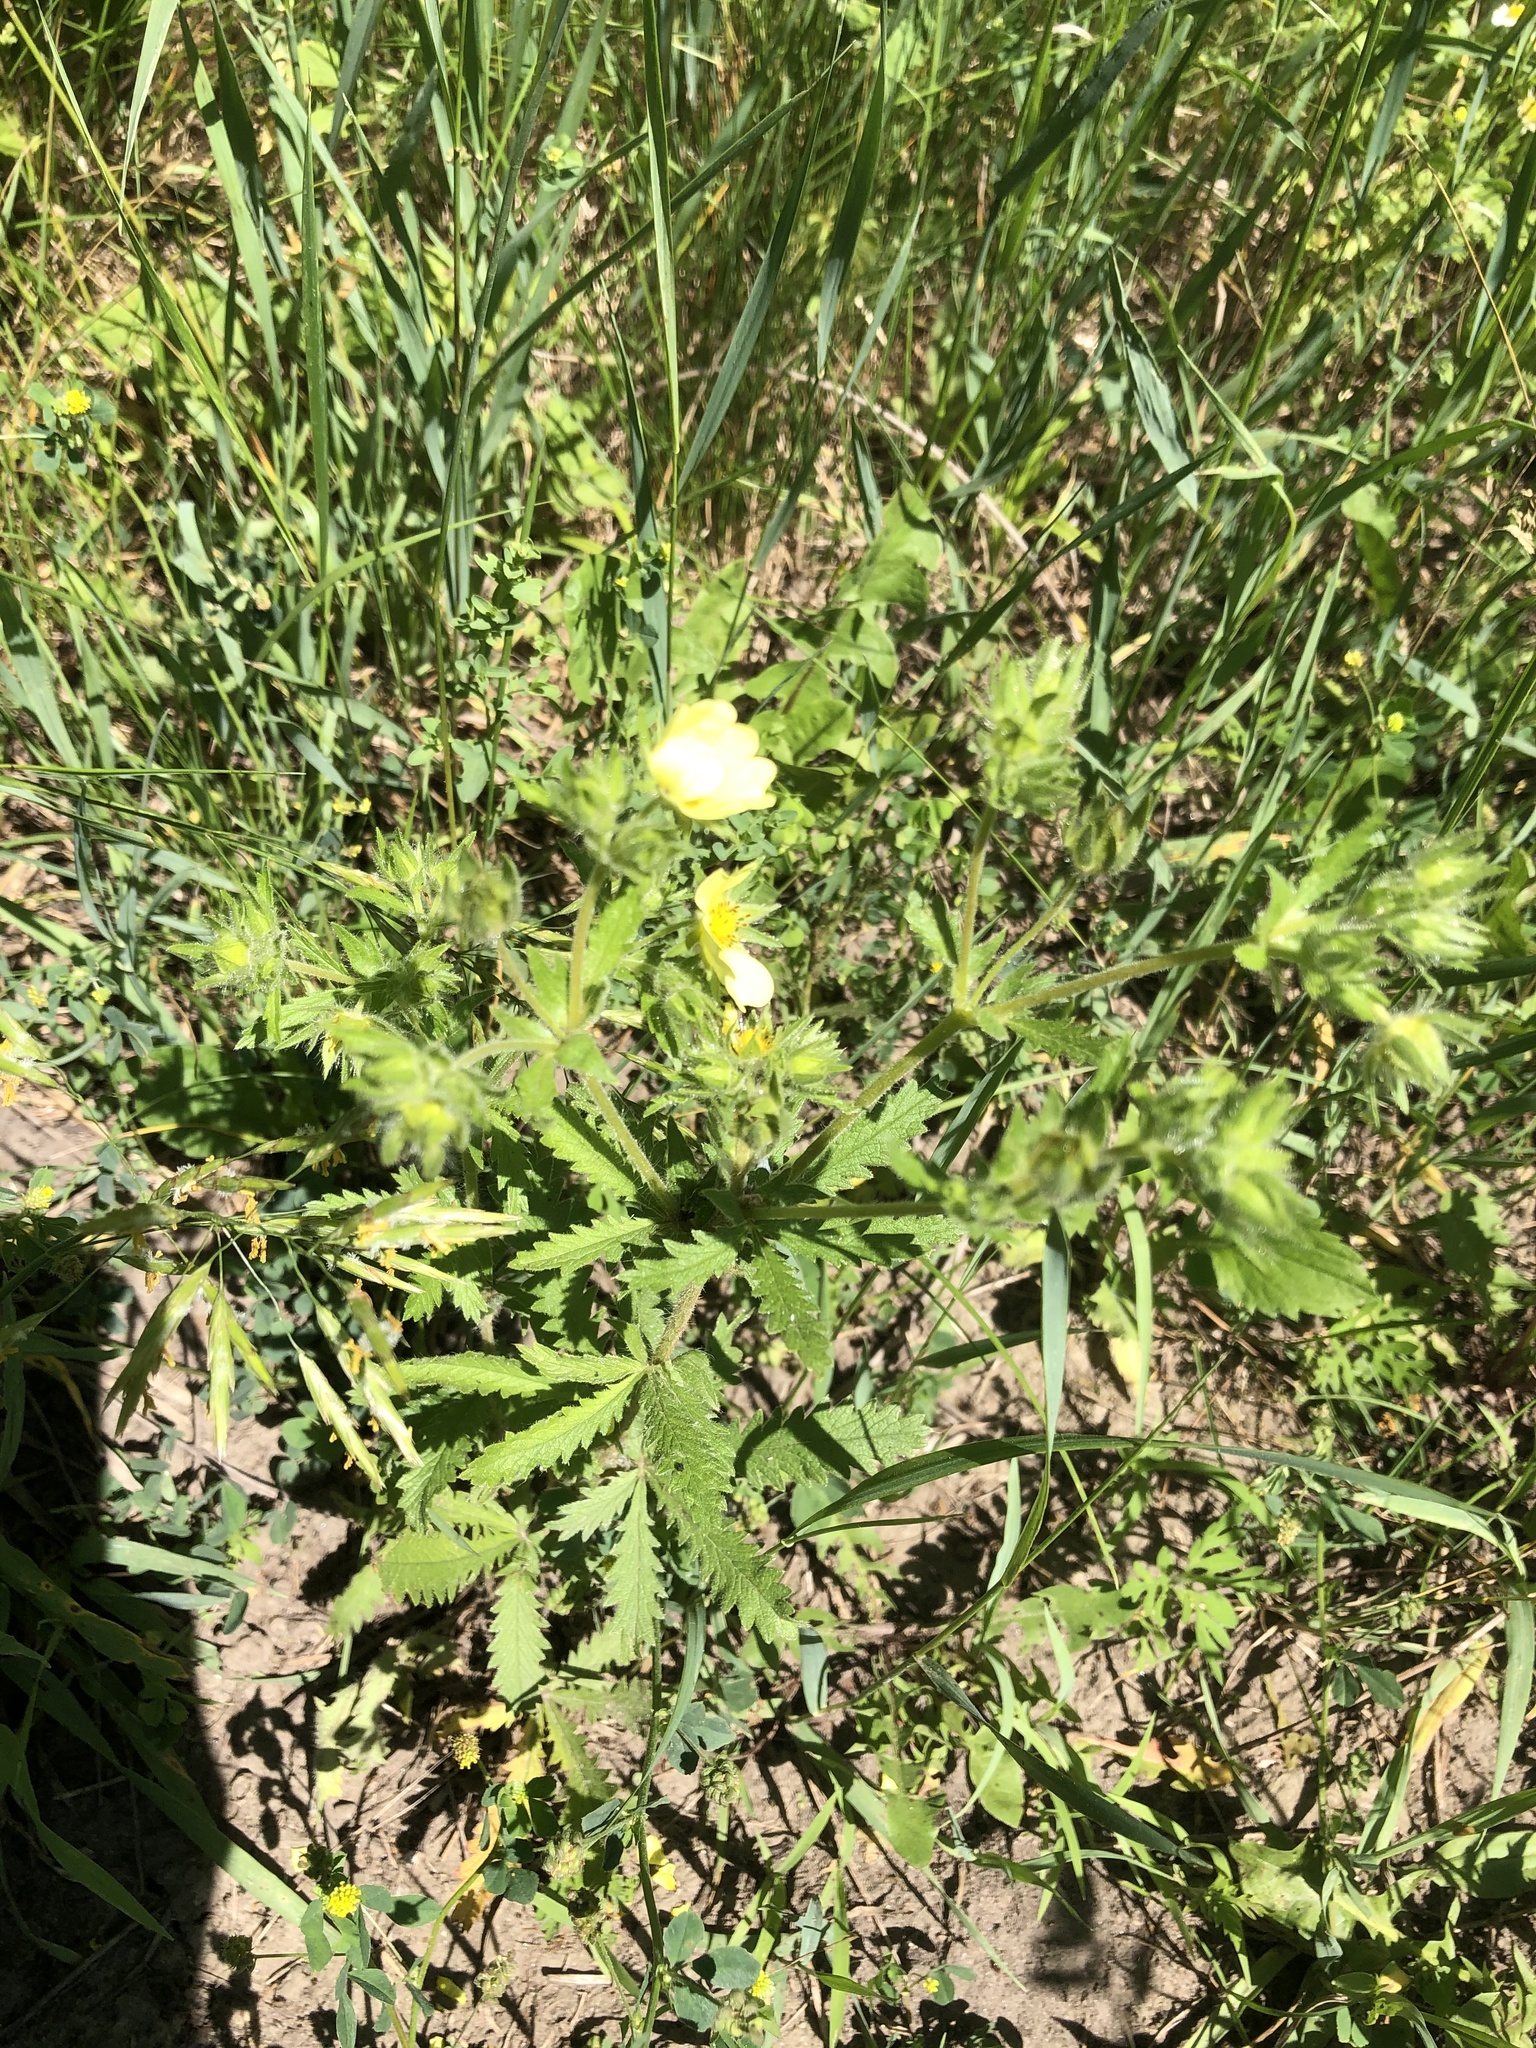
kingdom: Plantae
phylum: Tracheophyta
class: Magnoliopsida
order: Rosales
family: Rosaceae
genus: Potentilla
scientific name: Potentilla recta
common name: Sulphur cinquefoil
